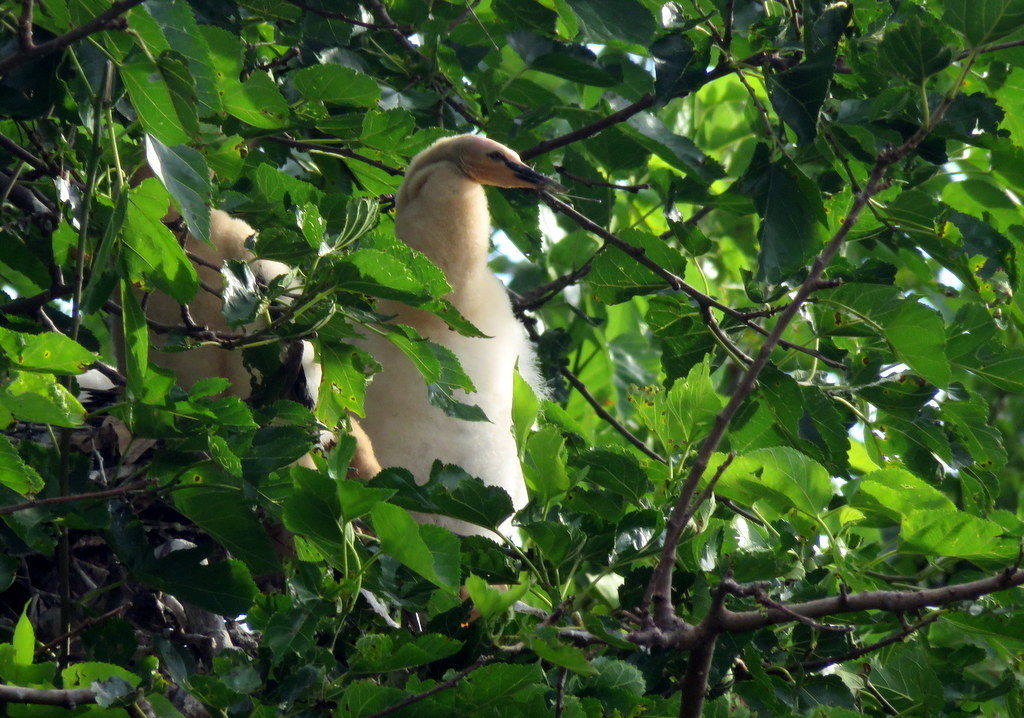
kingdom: Animalia
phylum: Chordata
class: Aves
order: Suliformes
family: Anhingidae
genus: Anhinga
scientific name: Anhinga anhinga
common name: Anhinga
